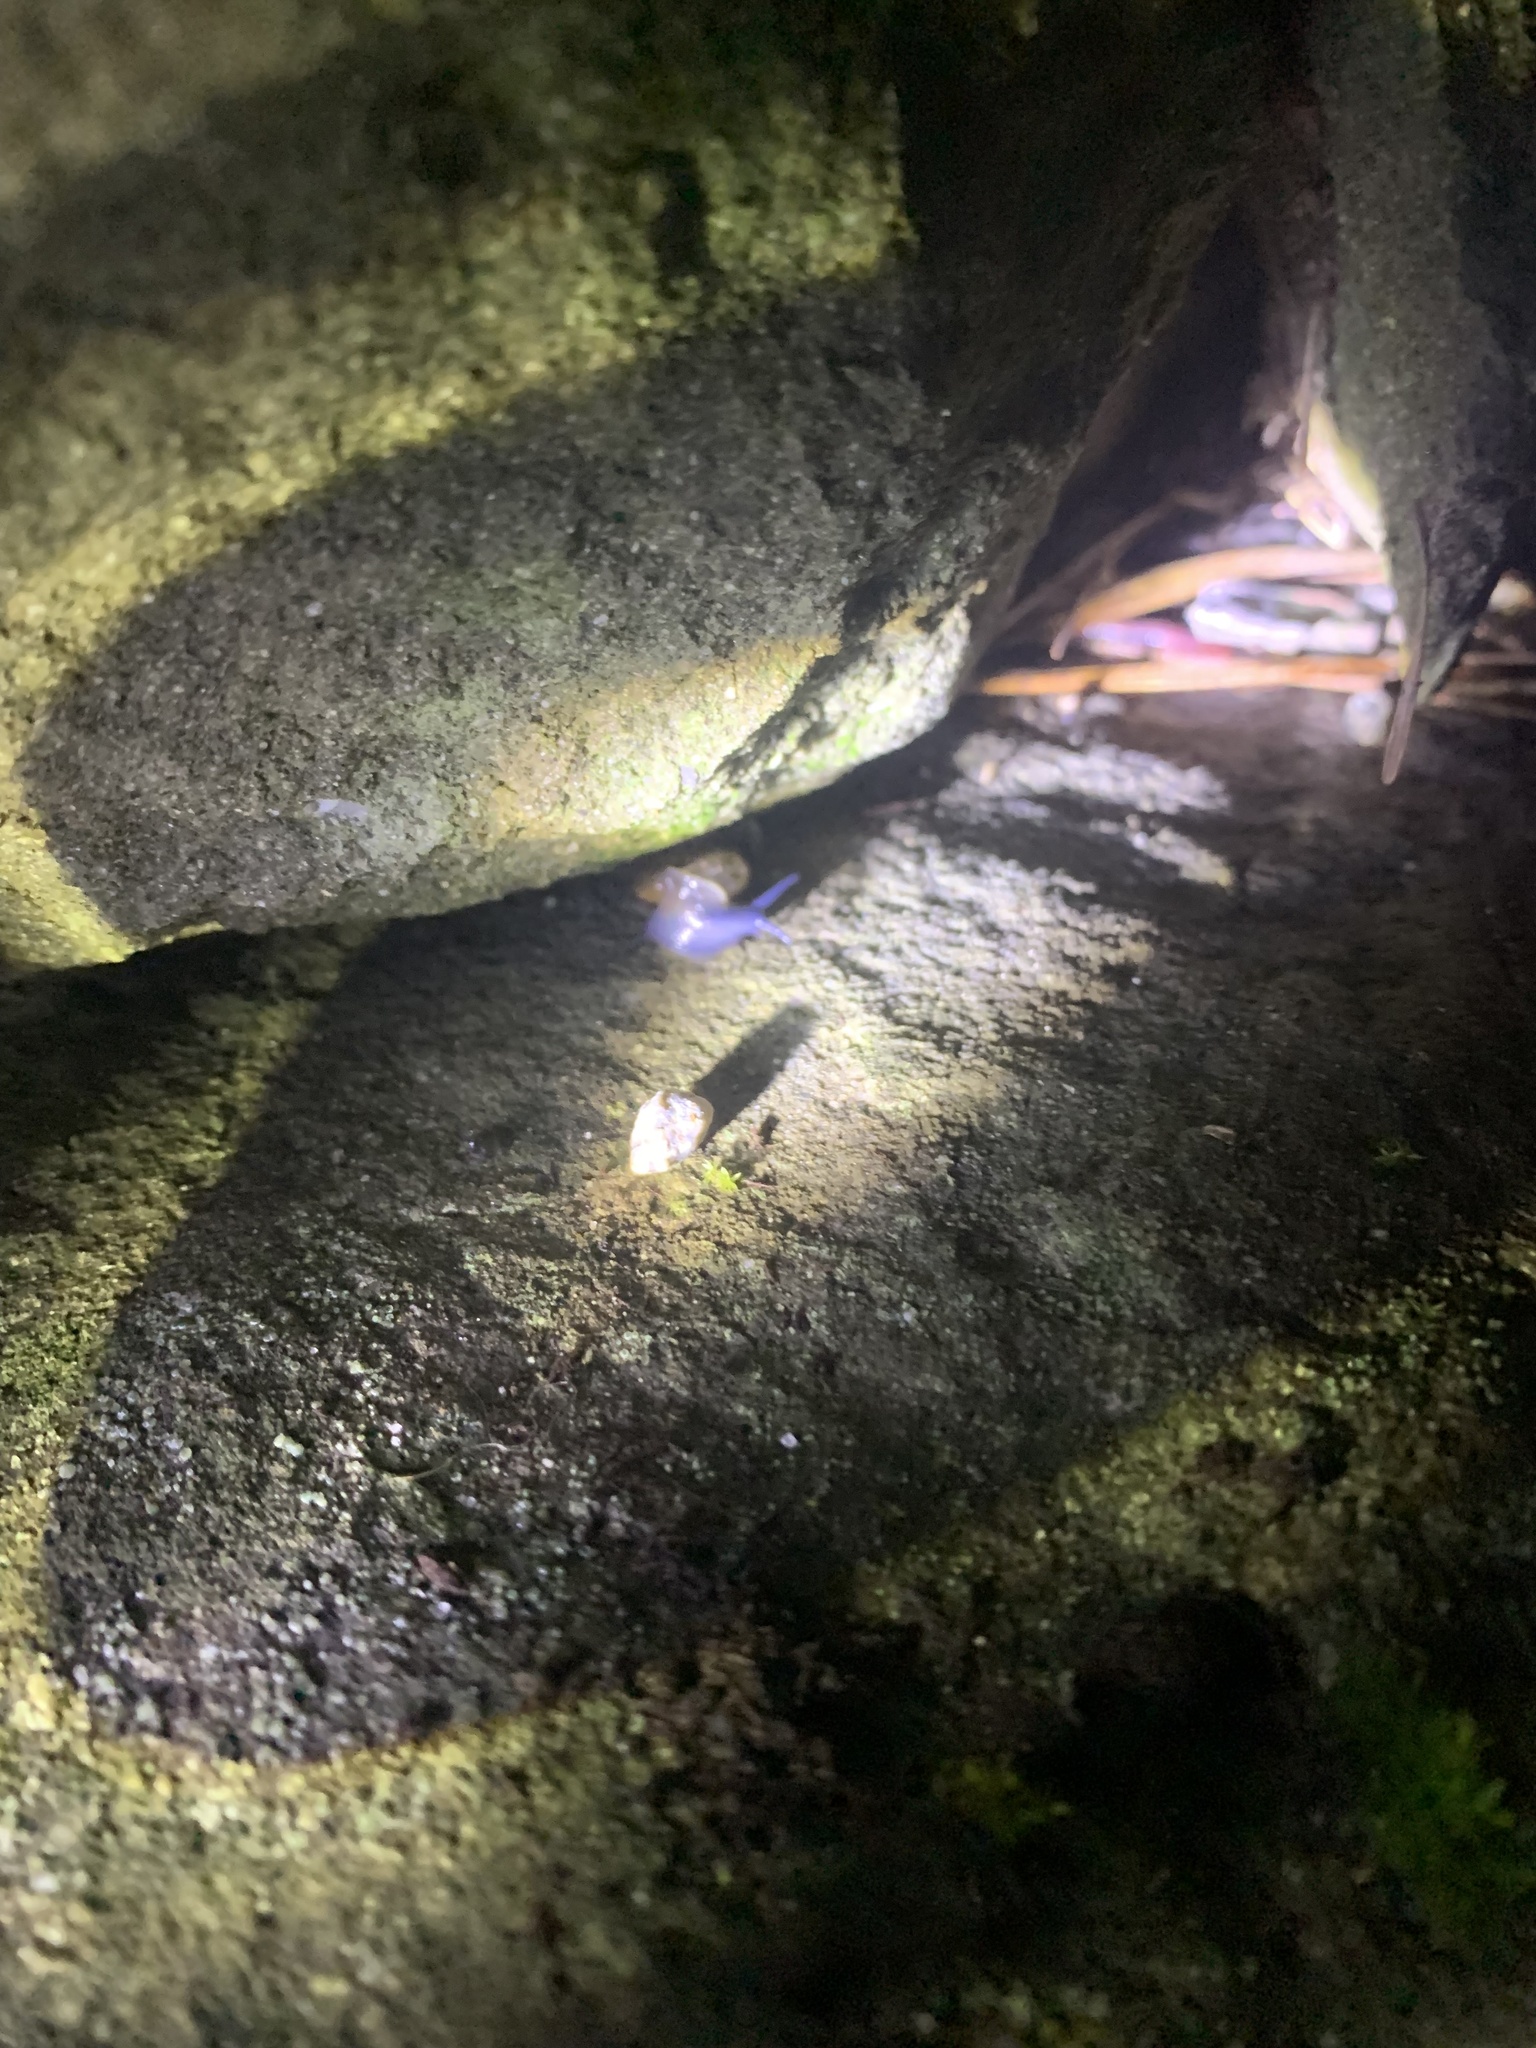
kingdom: Animalia
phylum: Mollusca
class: Gastropoda
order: Stylommatophora
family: Oxychilidae
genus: Oxychilus
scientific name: Oxychilus draparnaudi
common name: Draparnaud's glass snail
